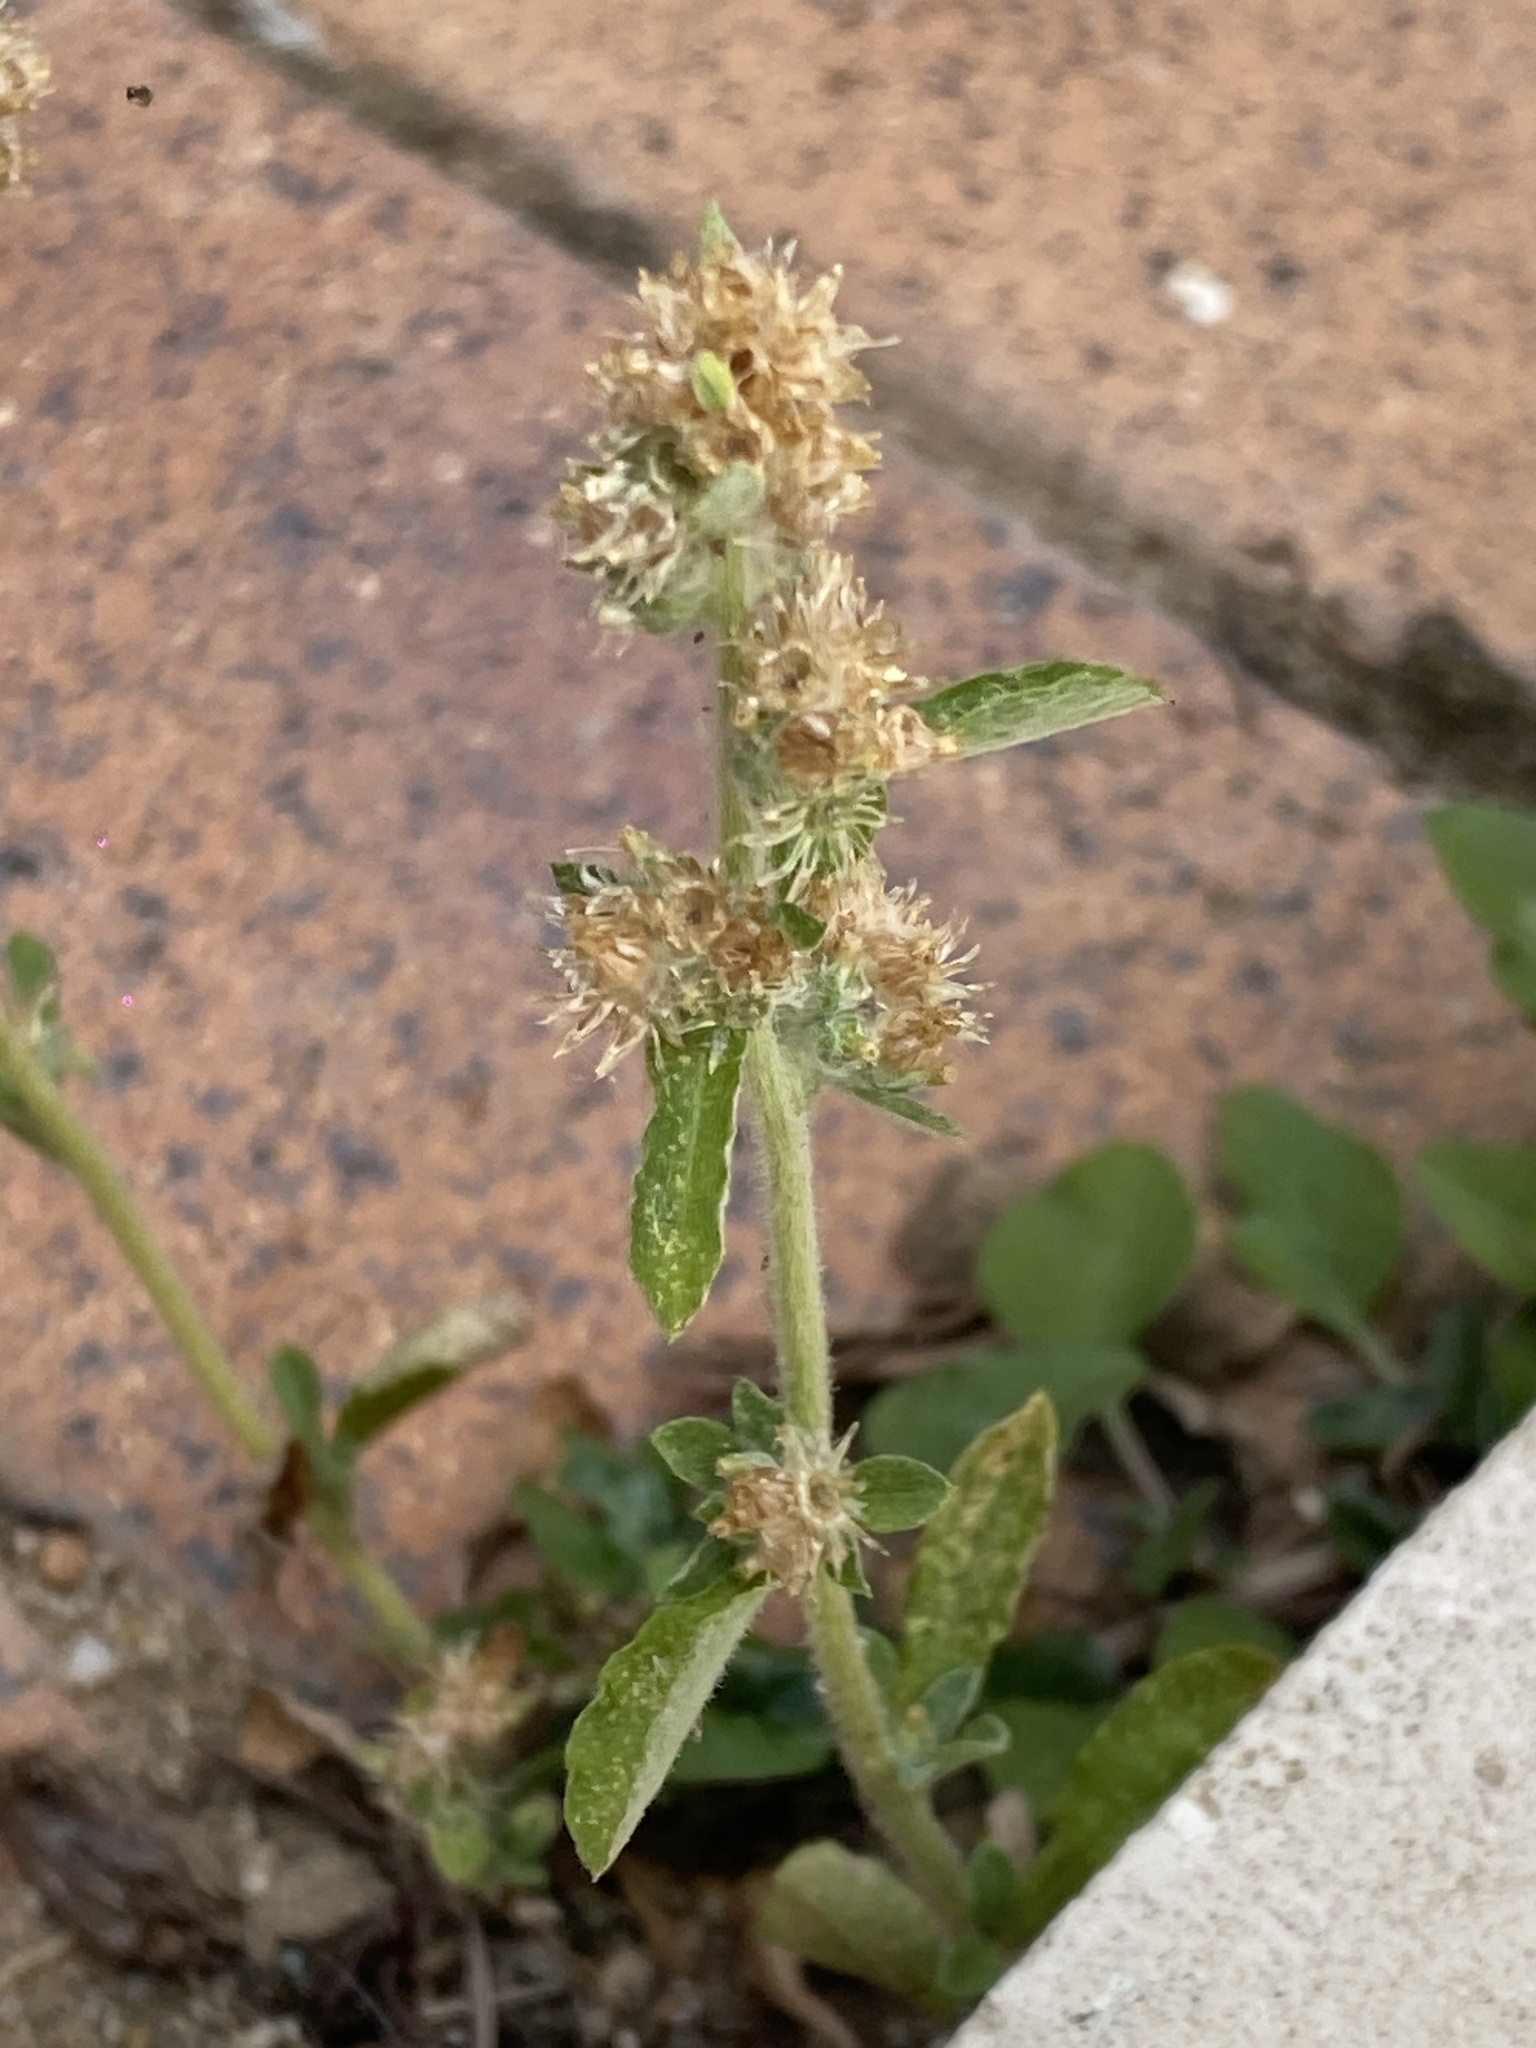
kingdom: Plantae
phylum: Tracheophyta
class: Magnoliopsida
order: Asterales
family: Asteraceae
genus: Gamochaeta
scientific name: Gamochaeta pensylvanica
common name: Pennsylvania everlasting
